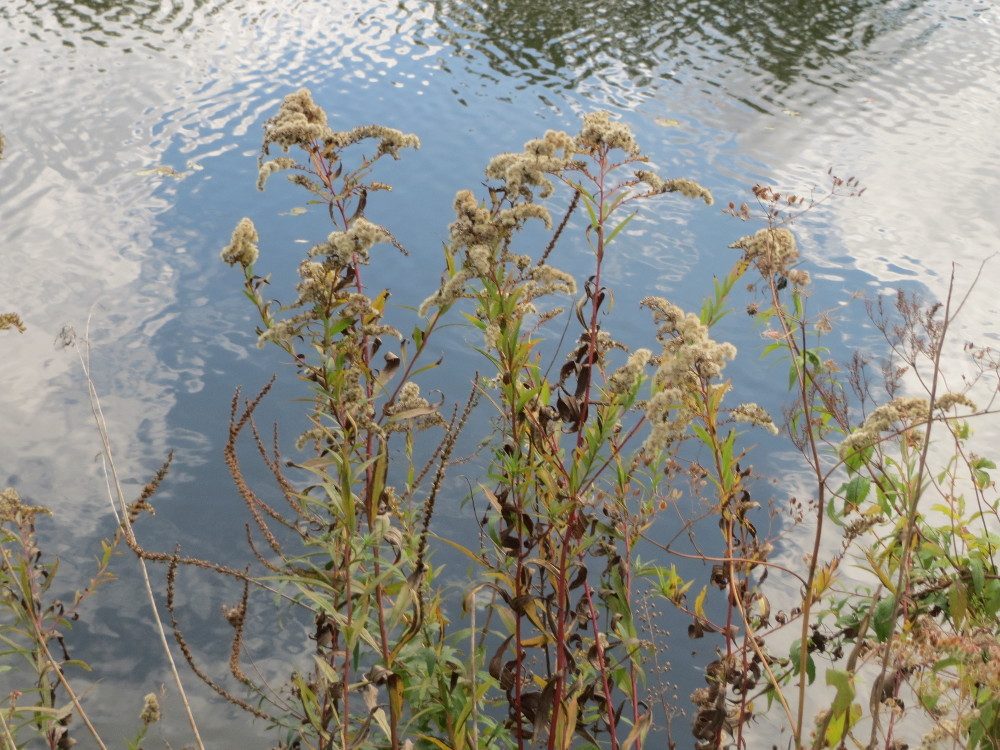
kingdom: Plantae
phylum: Tracheophyta
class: Magnoliopsida
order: Asterales
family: Asteraceae
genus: Solidago
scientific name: Solidago gigantea
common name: Giant goldenrod
